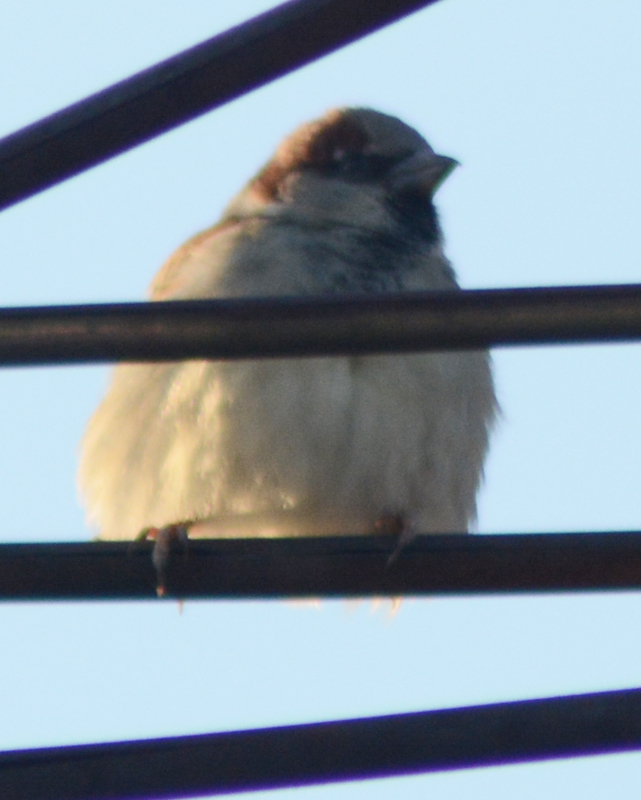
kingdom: Animalia
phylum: Chordata
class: Aves
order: Passeriformes
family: Passeridae
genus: Passer
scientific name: Passer domesticus
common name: House sparrow
